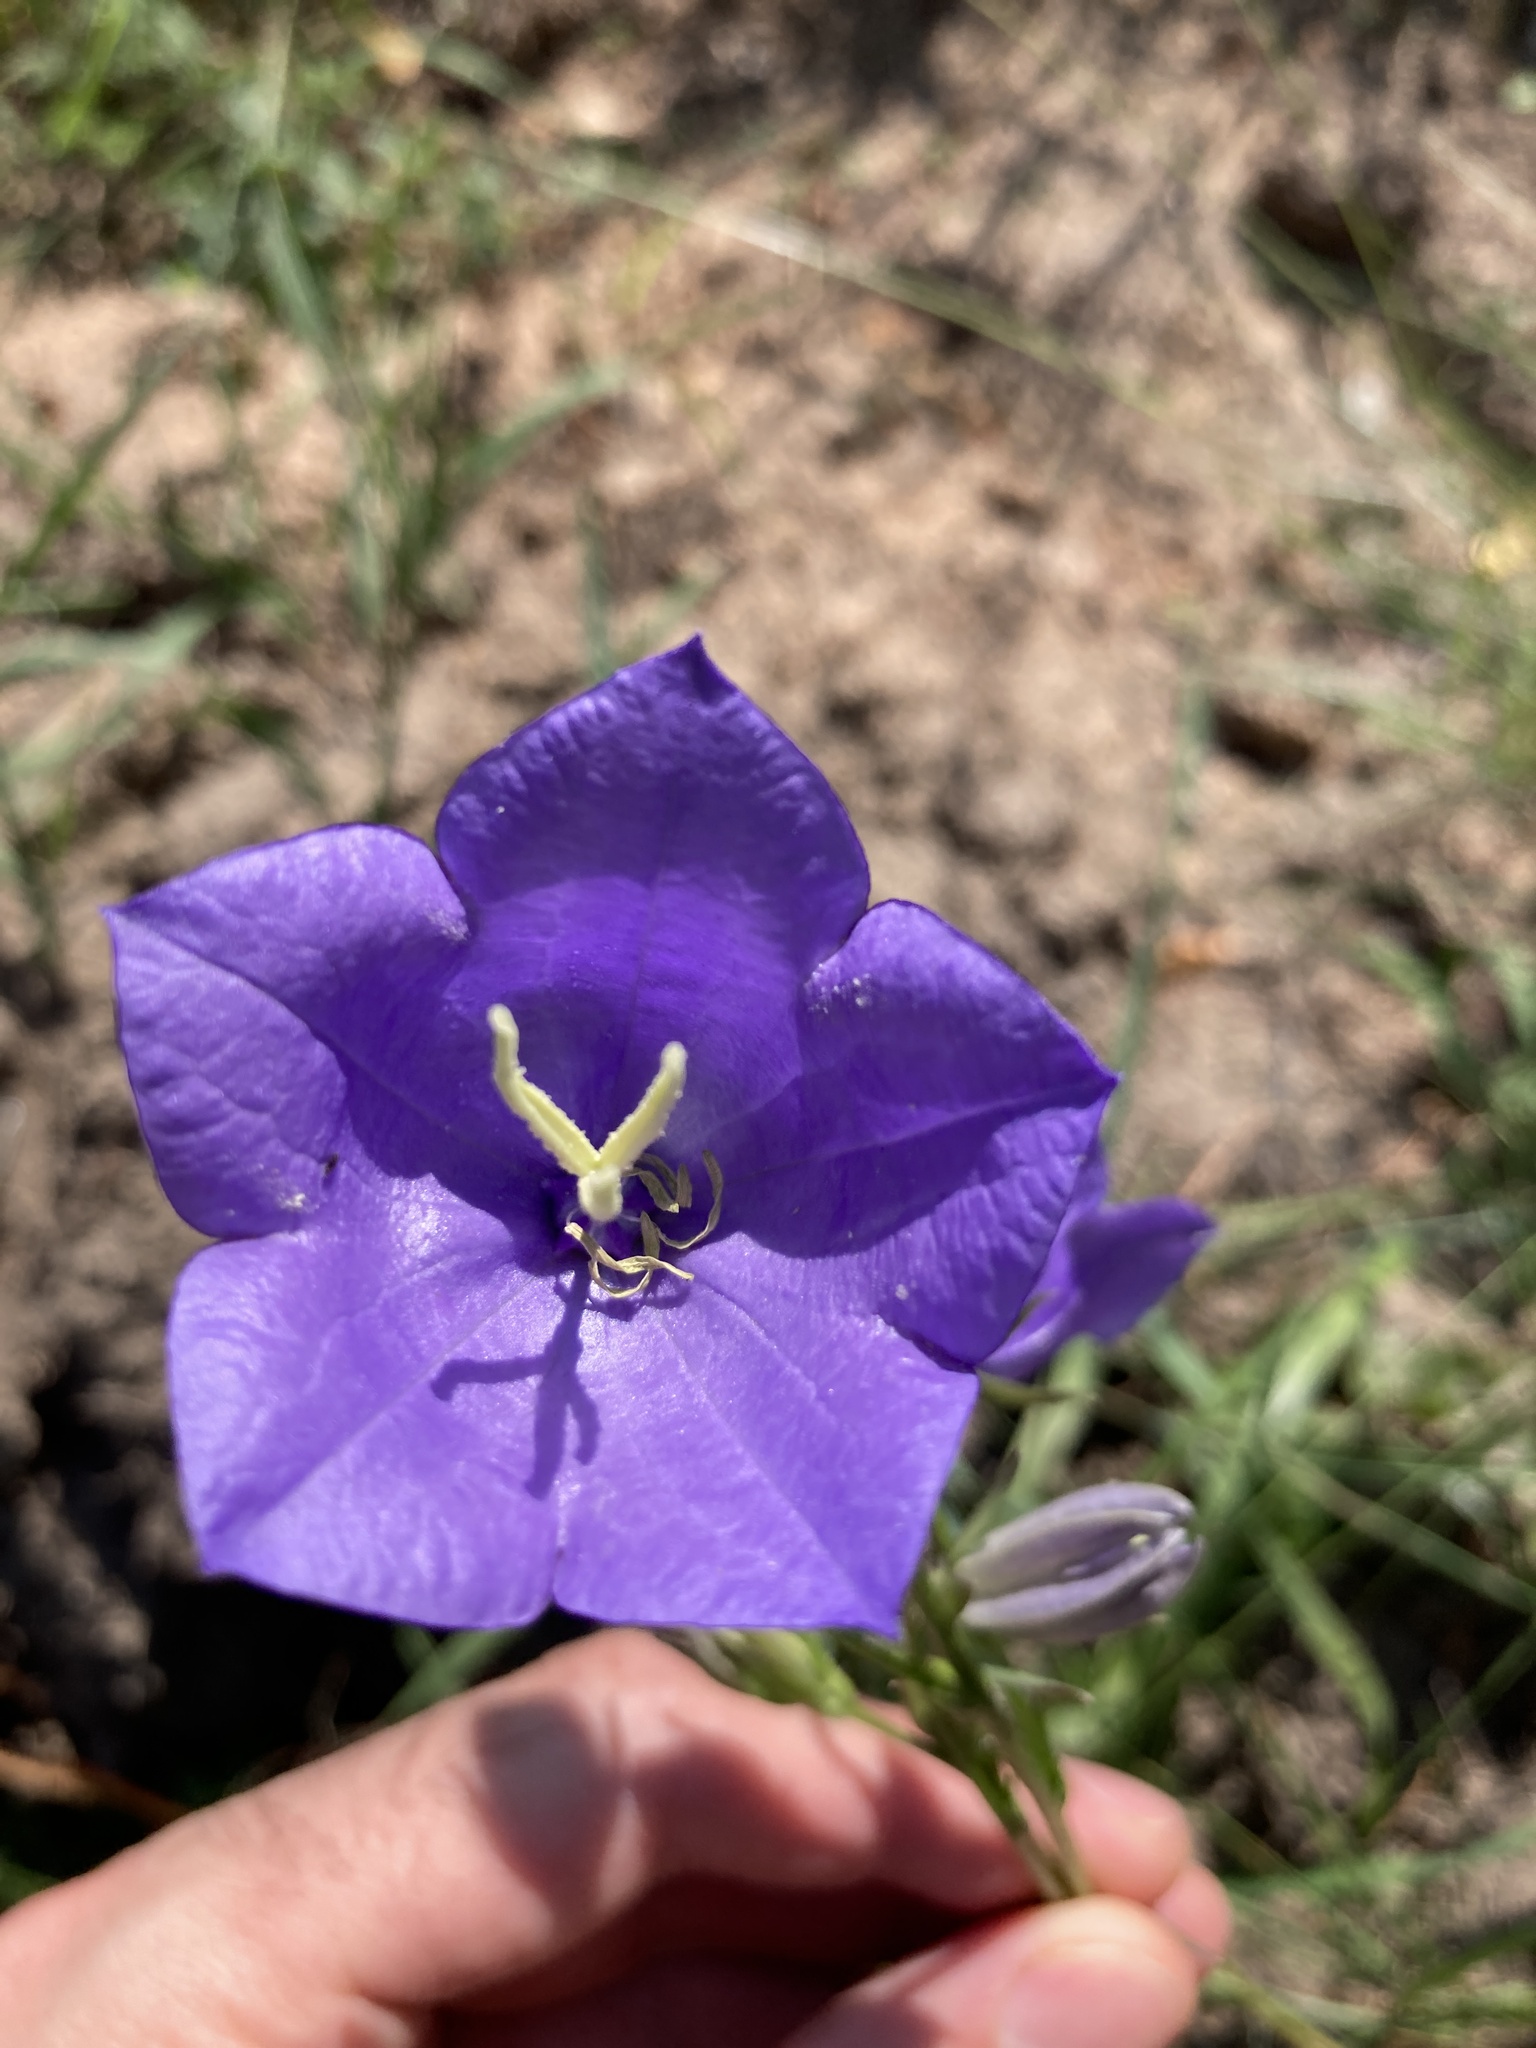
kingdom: Plantae
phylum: Tracheophyta
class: Magnoliopsida
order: Asterales
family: Campanulaceae
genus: Campanula
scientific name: Campanula persicifolia
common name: Peach-leaved bellflower
